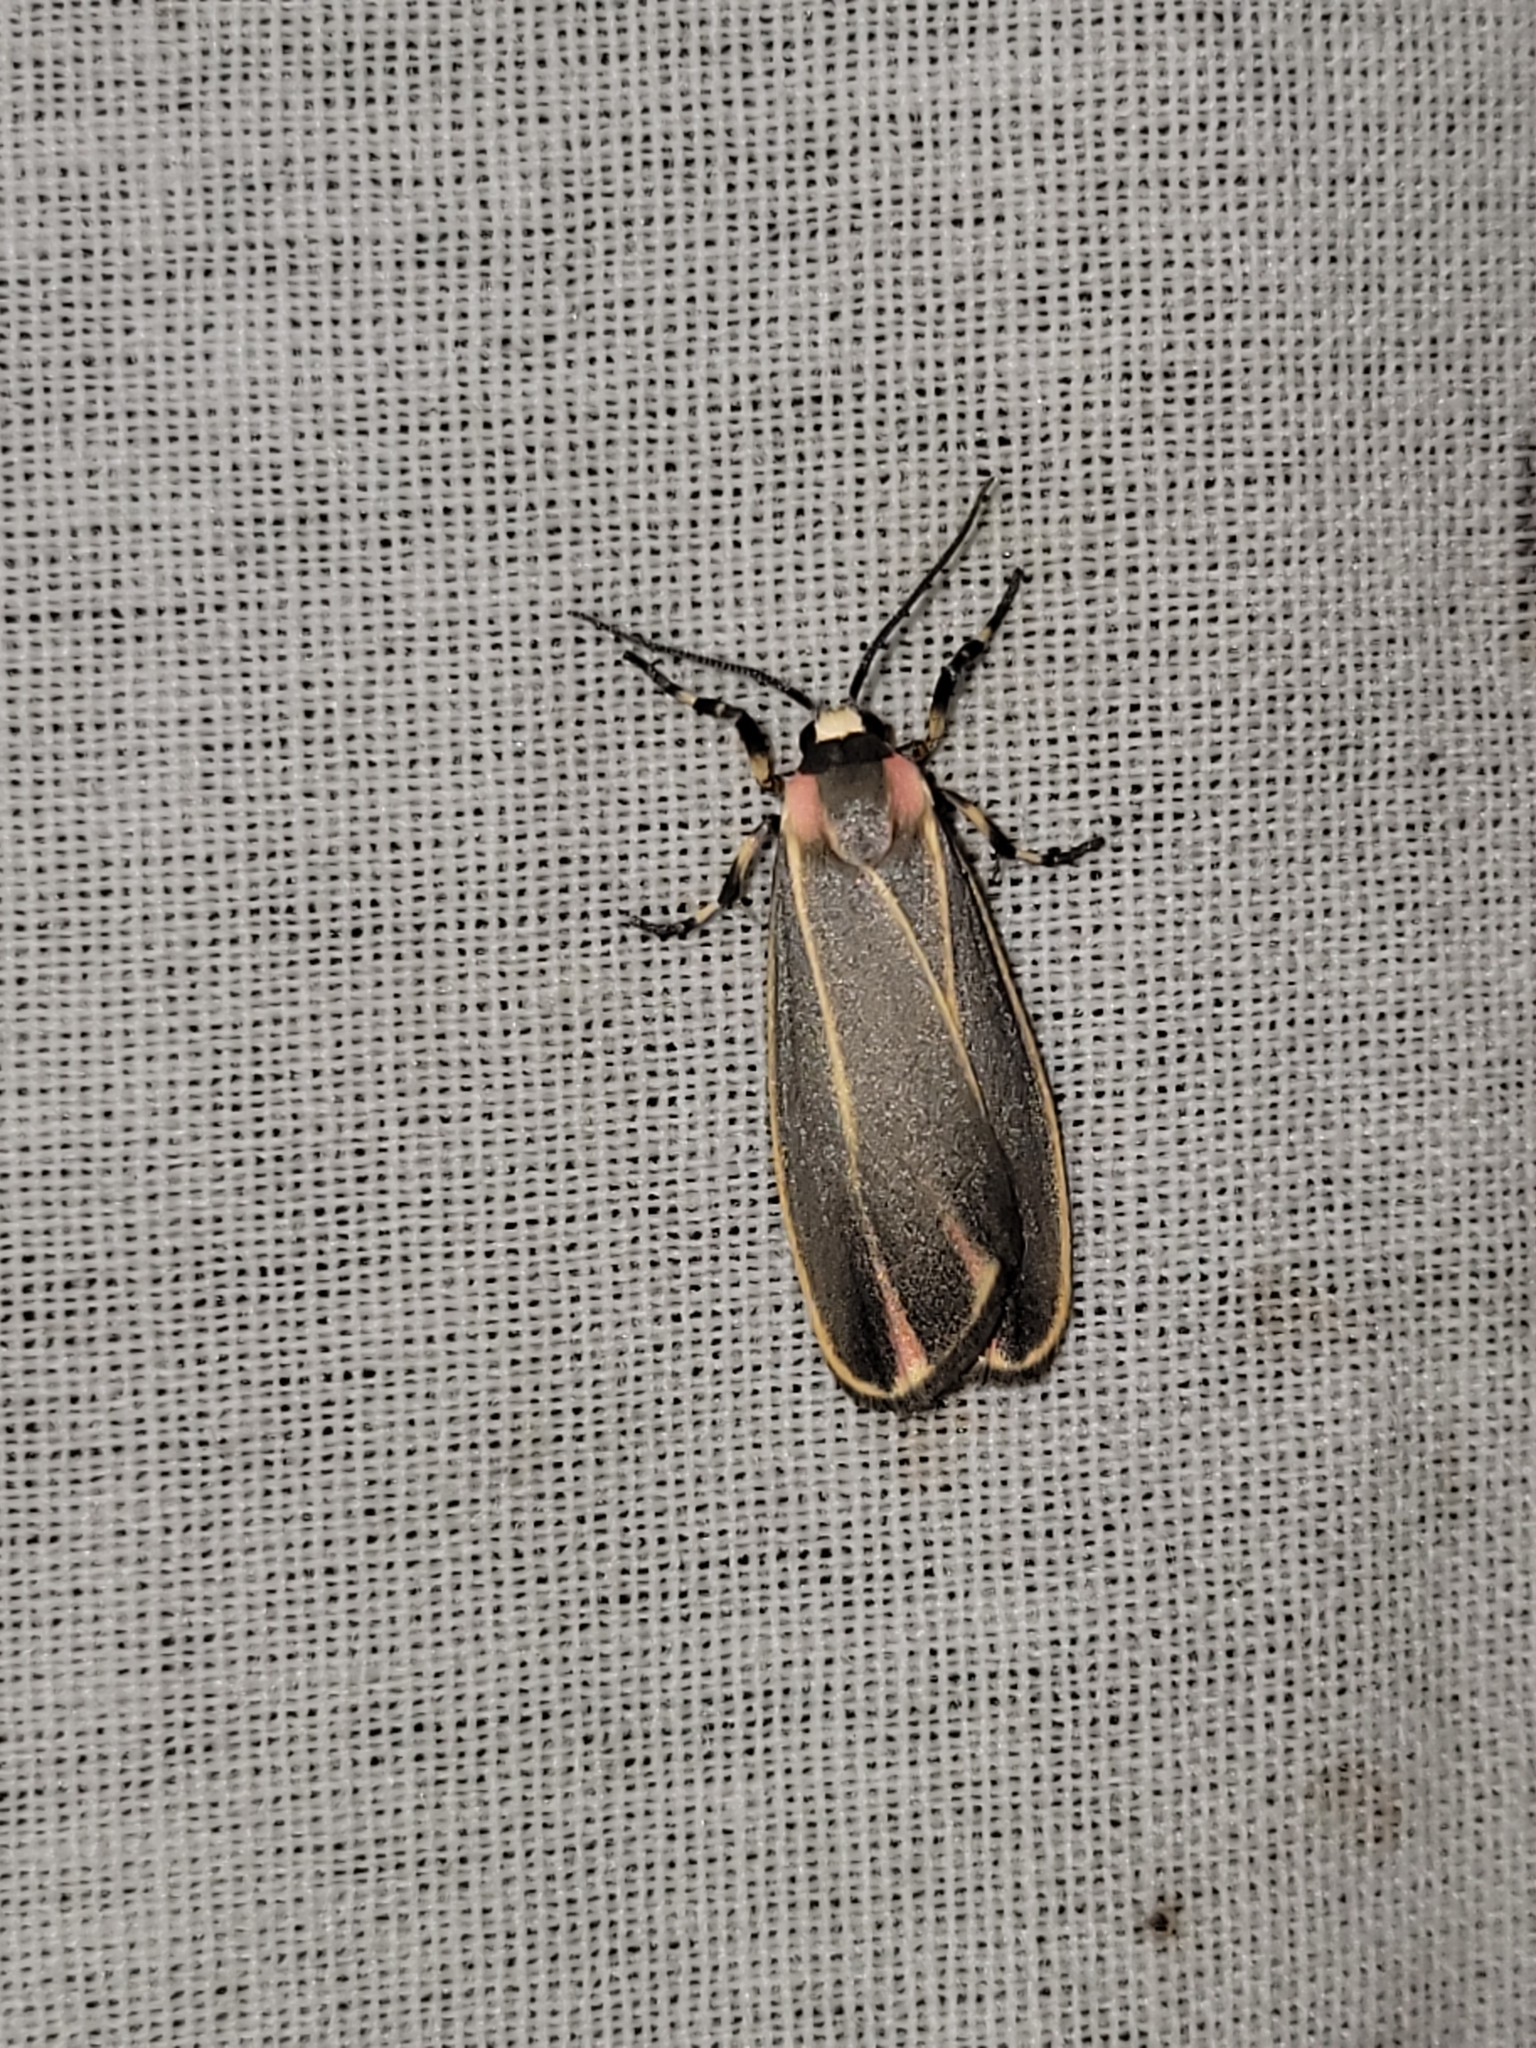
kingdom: Animalia
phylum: Arthropoda
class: Insecta
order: Lepidoptera
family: Erebidae
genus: Hypoprepia
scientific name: Hypoprepia fucosa
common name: Painted lichen moth
